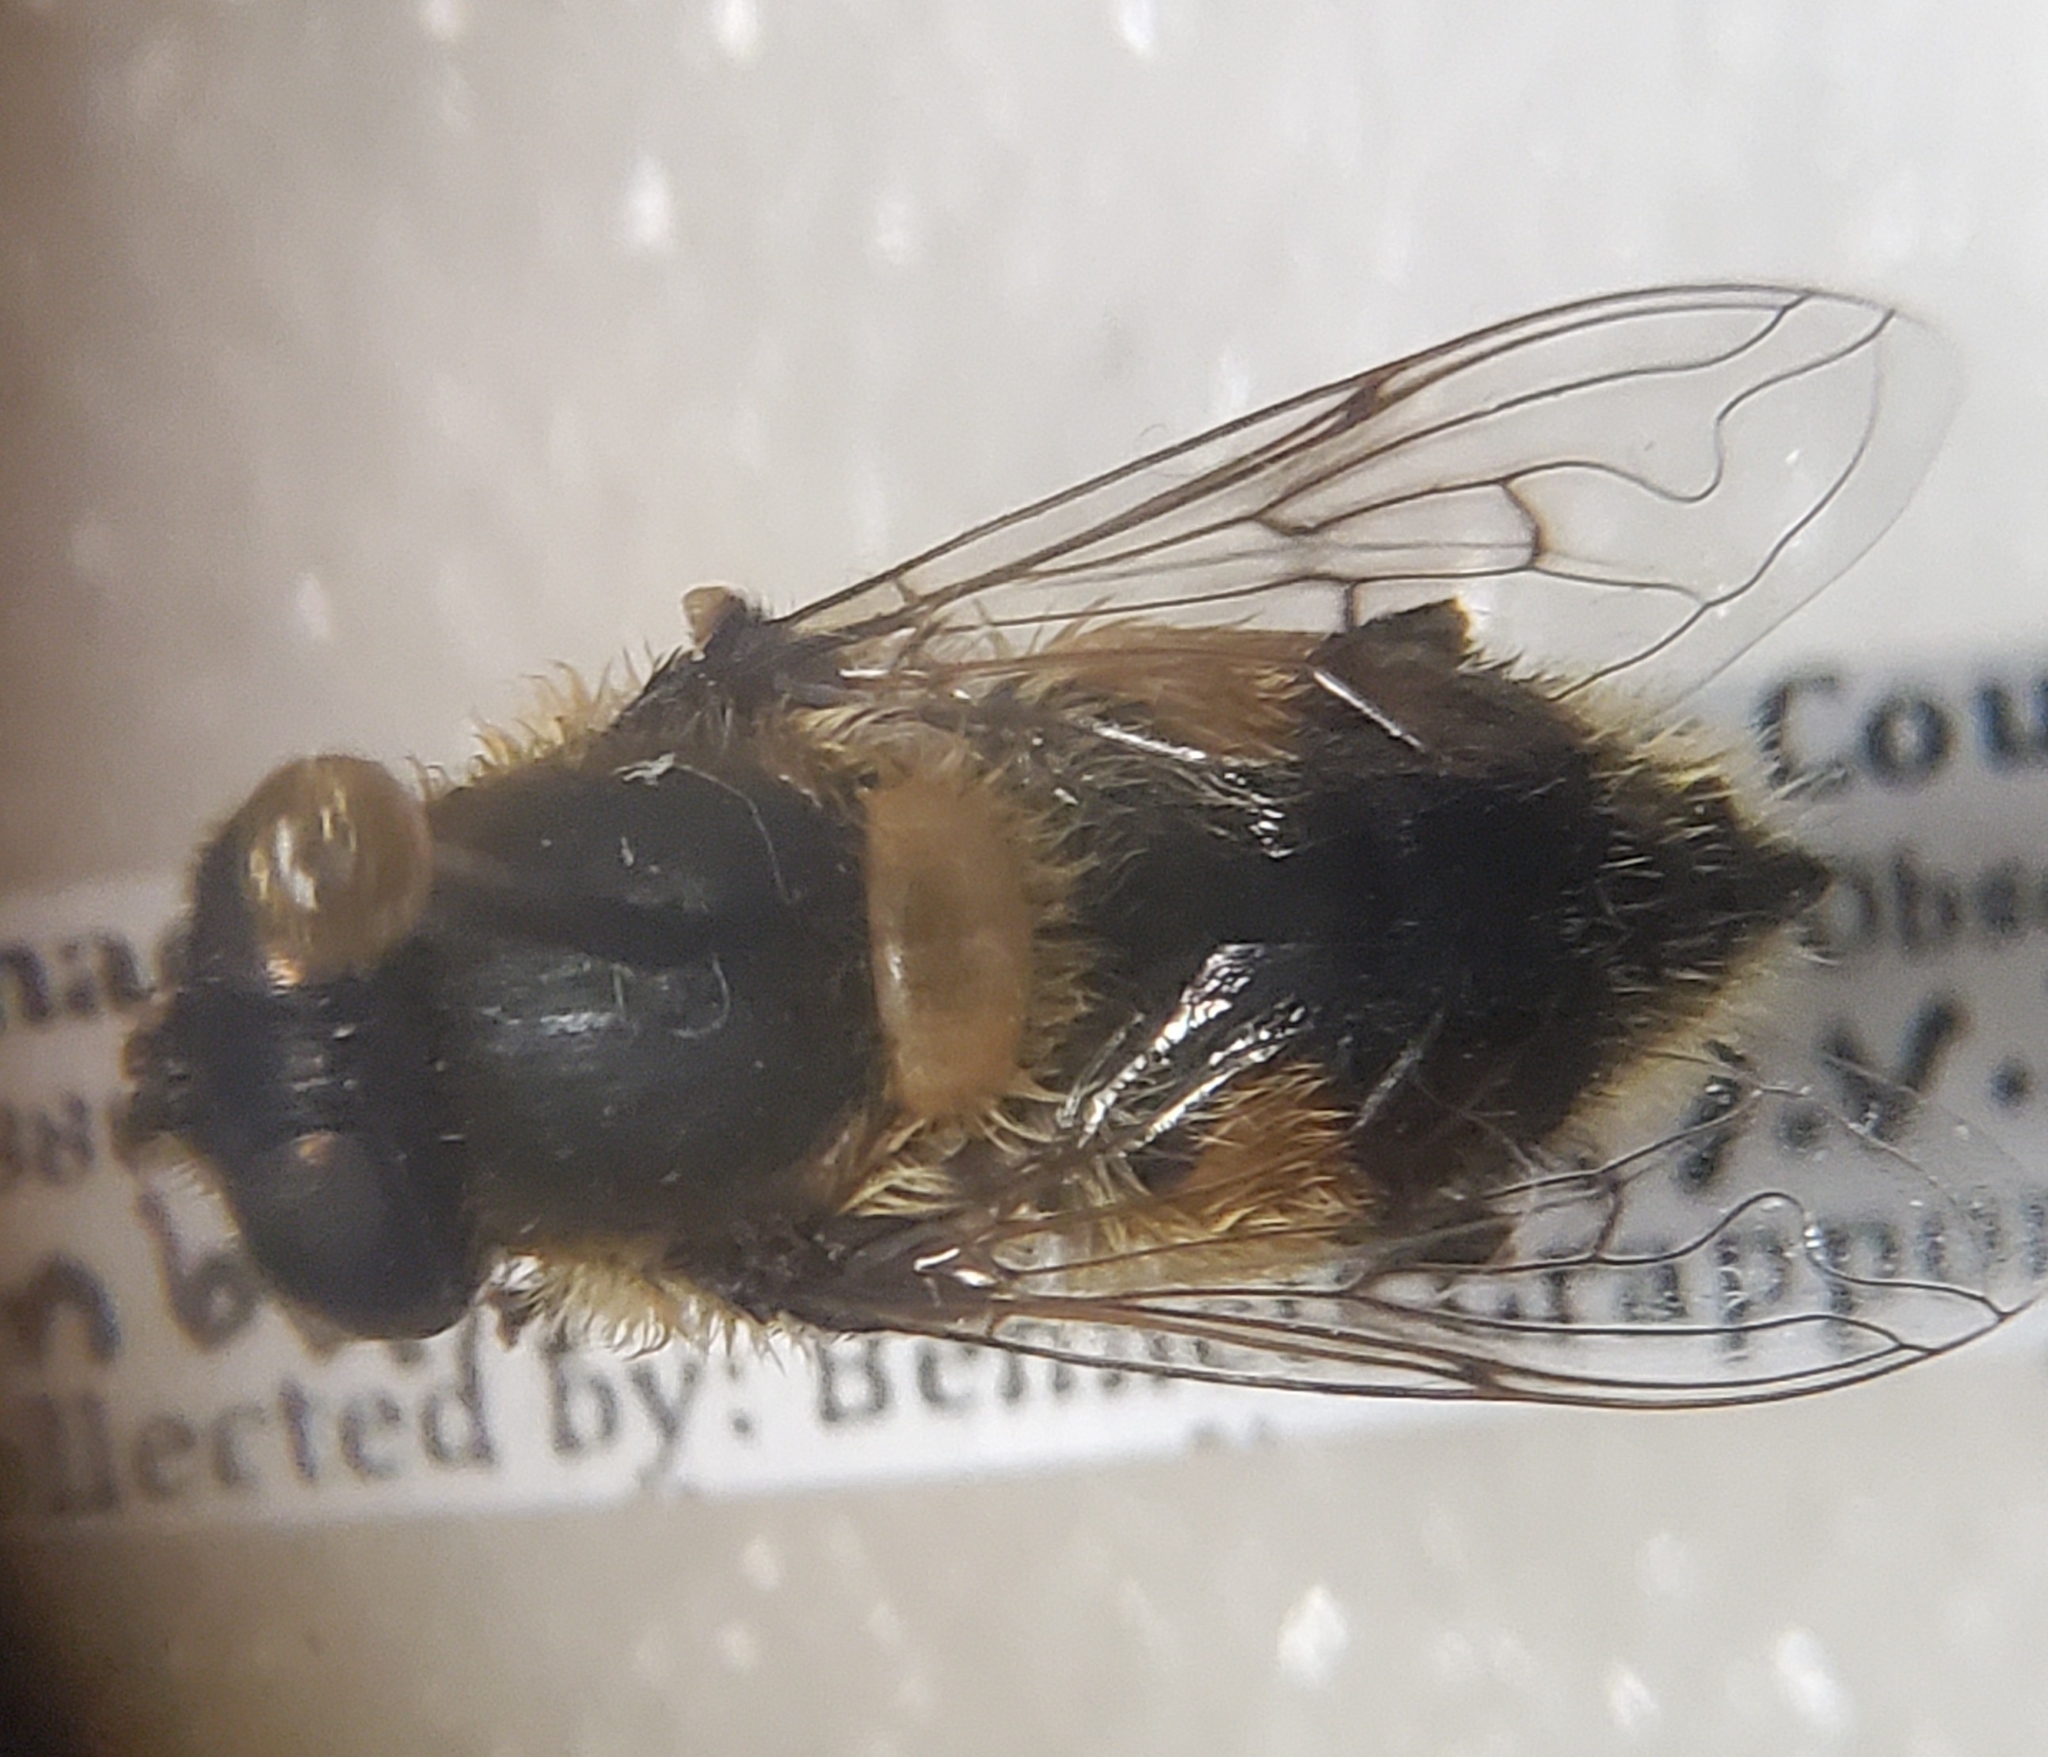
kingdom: Animalia
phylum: Arthropoda
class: Insecta
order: Diptera
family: Syrphidae
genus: Eristalis
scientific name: Eristalis anthophorina
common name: Orange-spotted drone fly
